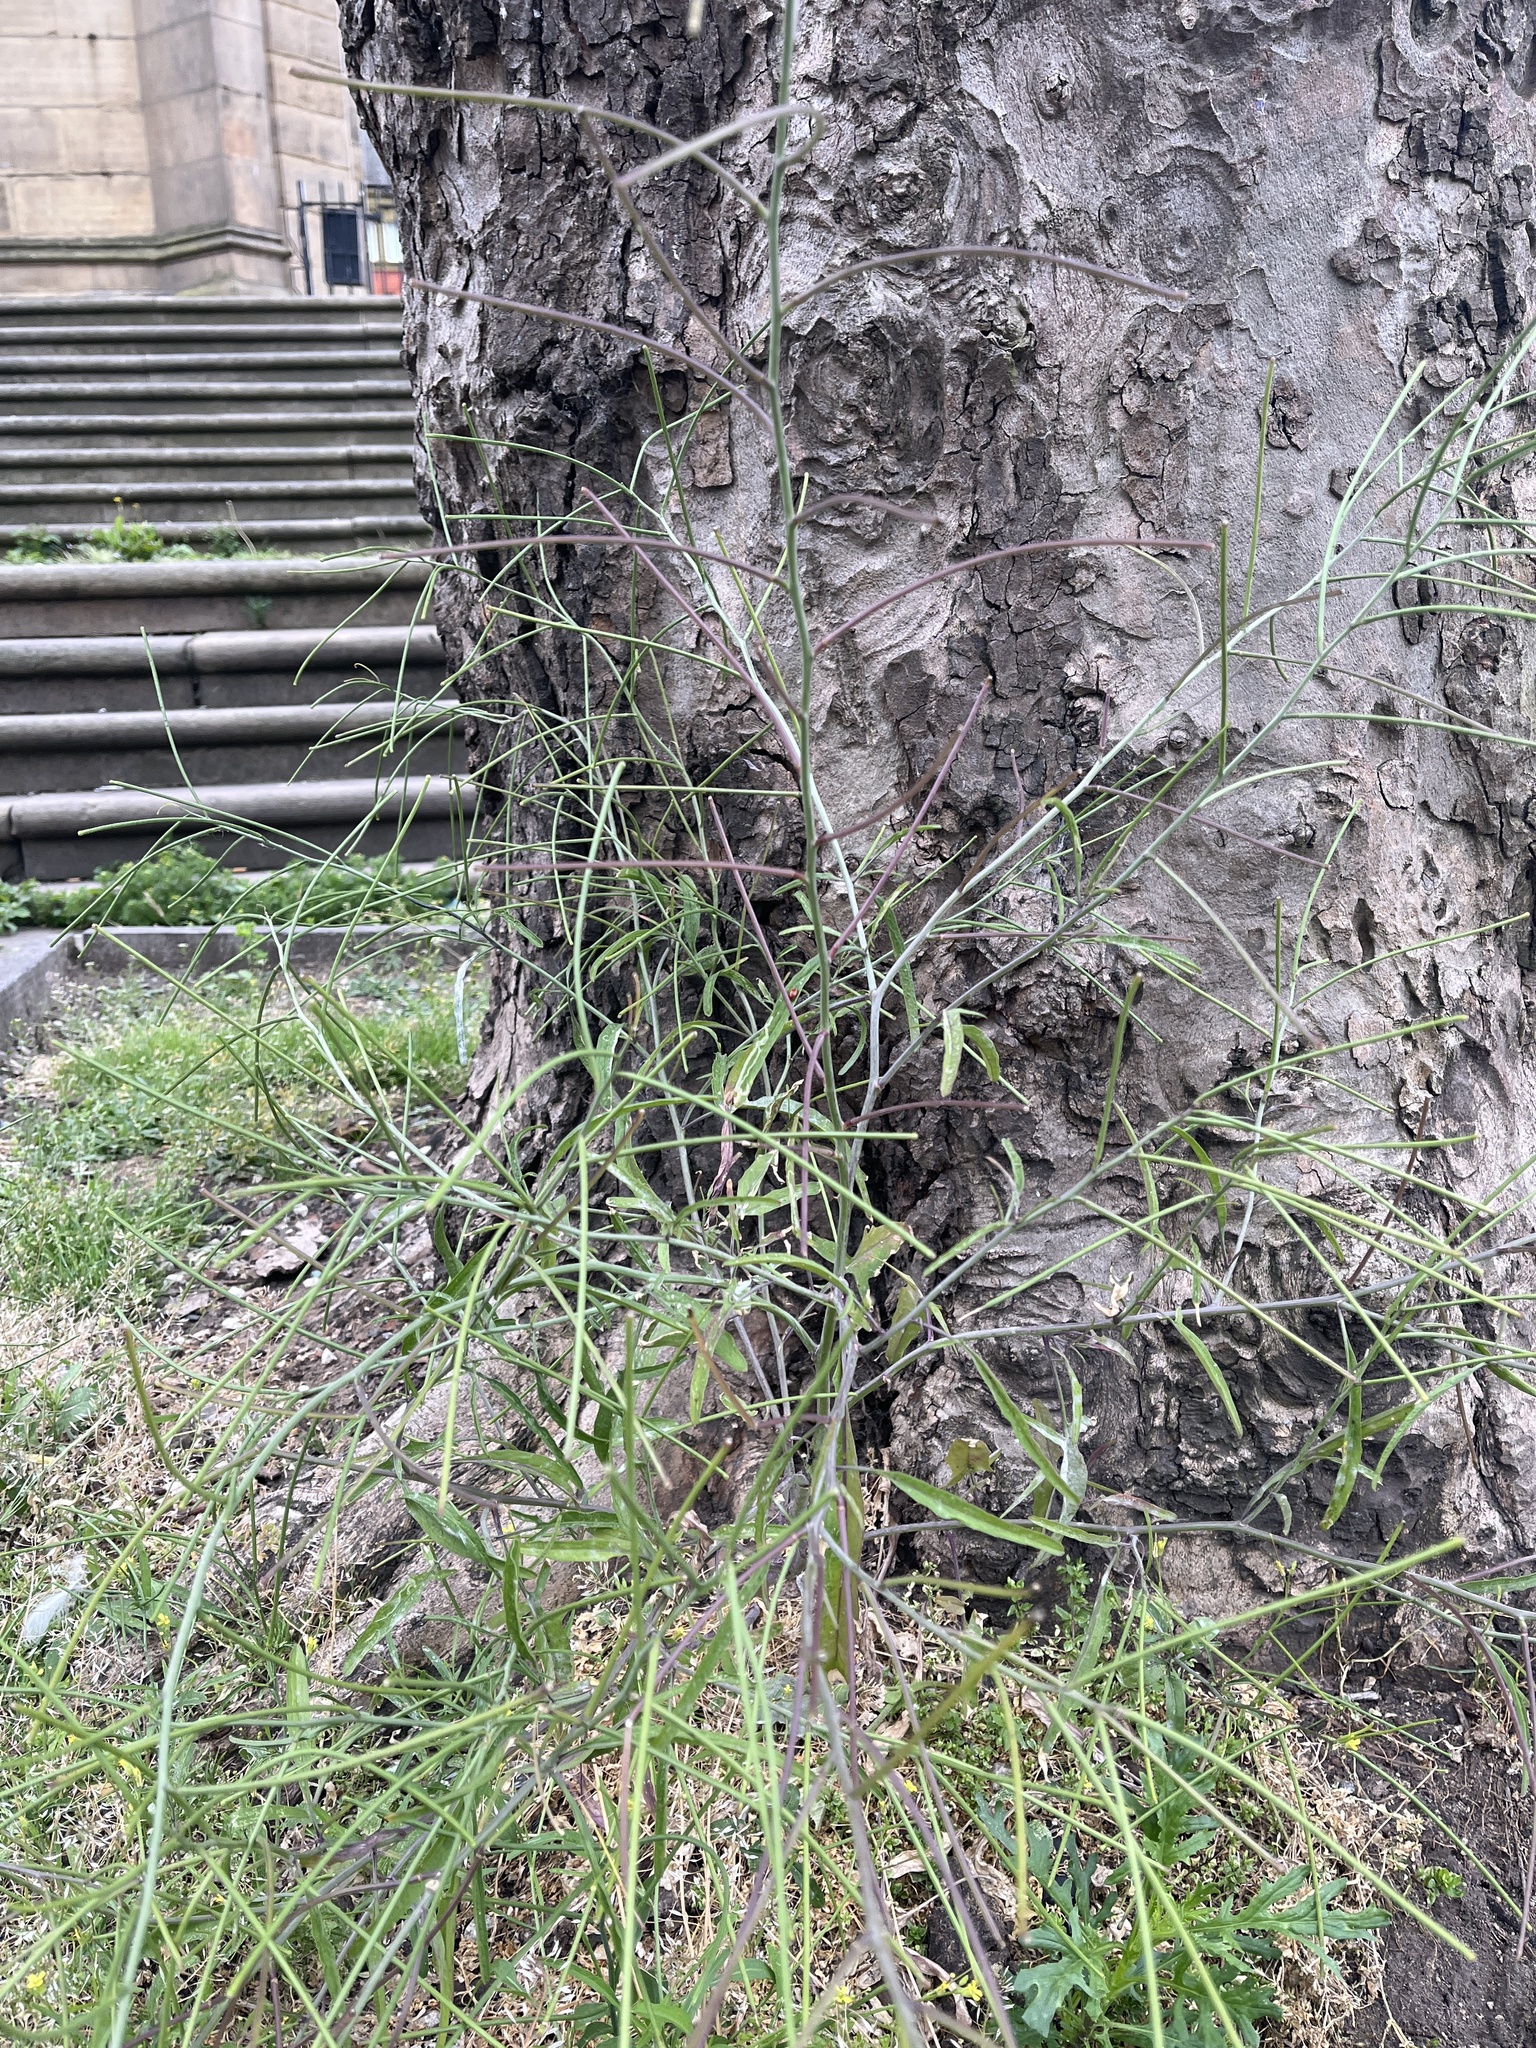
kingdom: Plantae
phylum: Tracheophyta
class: Magnoliopsida
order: Brassicales
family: Brassicaceae
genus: Sisymbrium
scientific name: Sisymbrium orientale
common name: Eastern rocket
